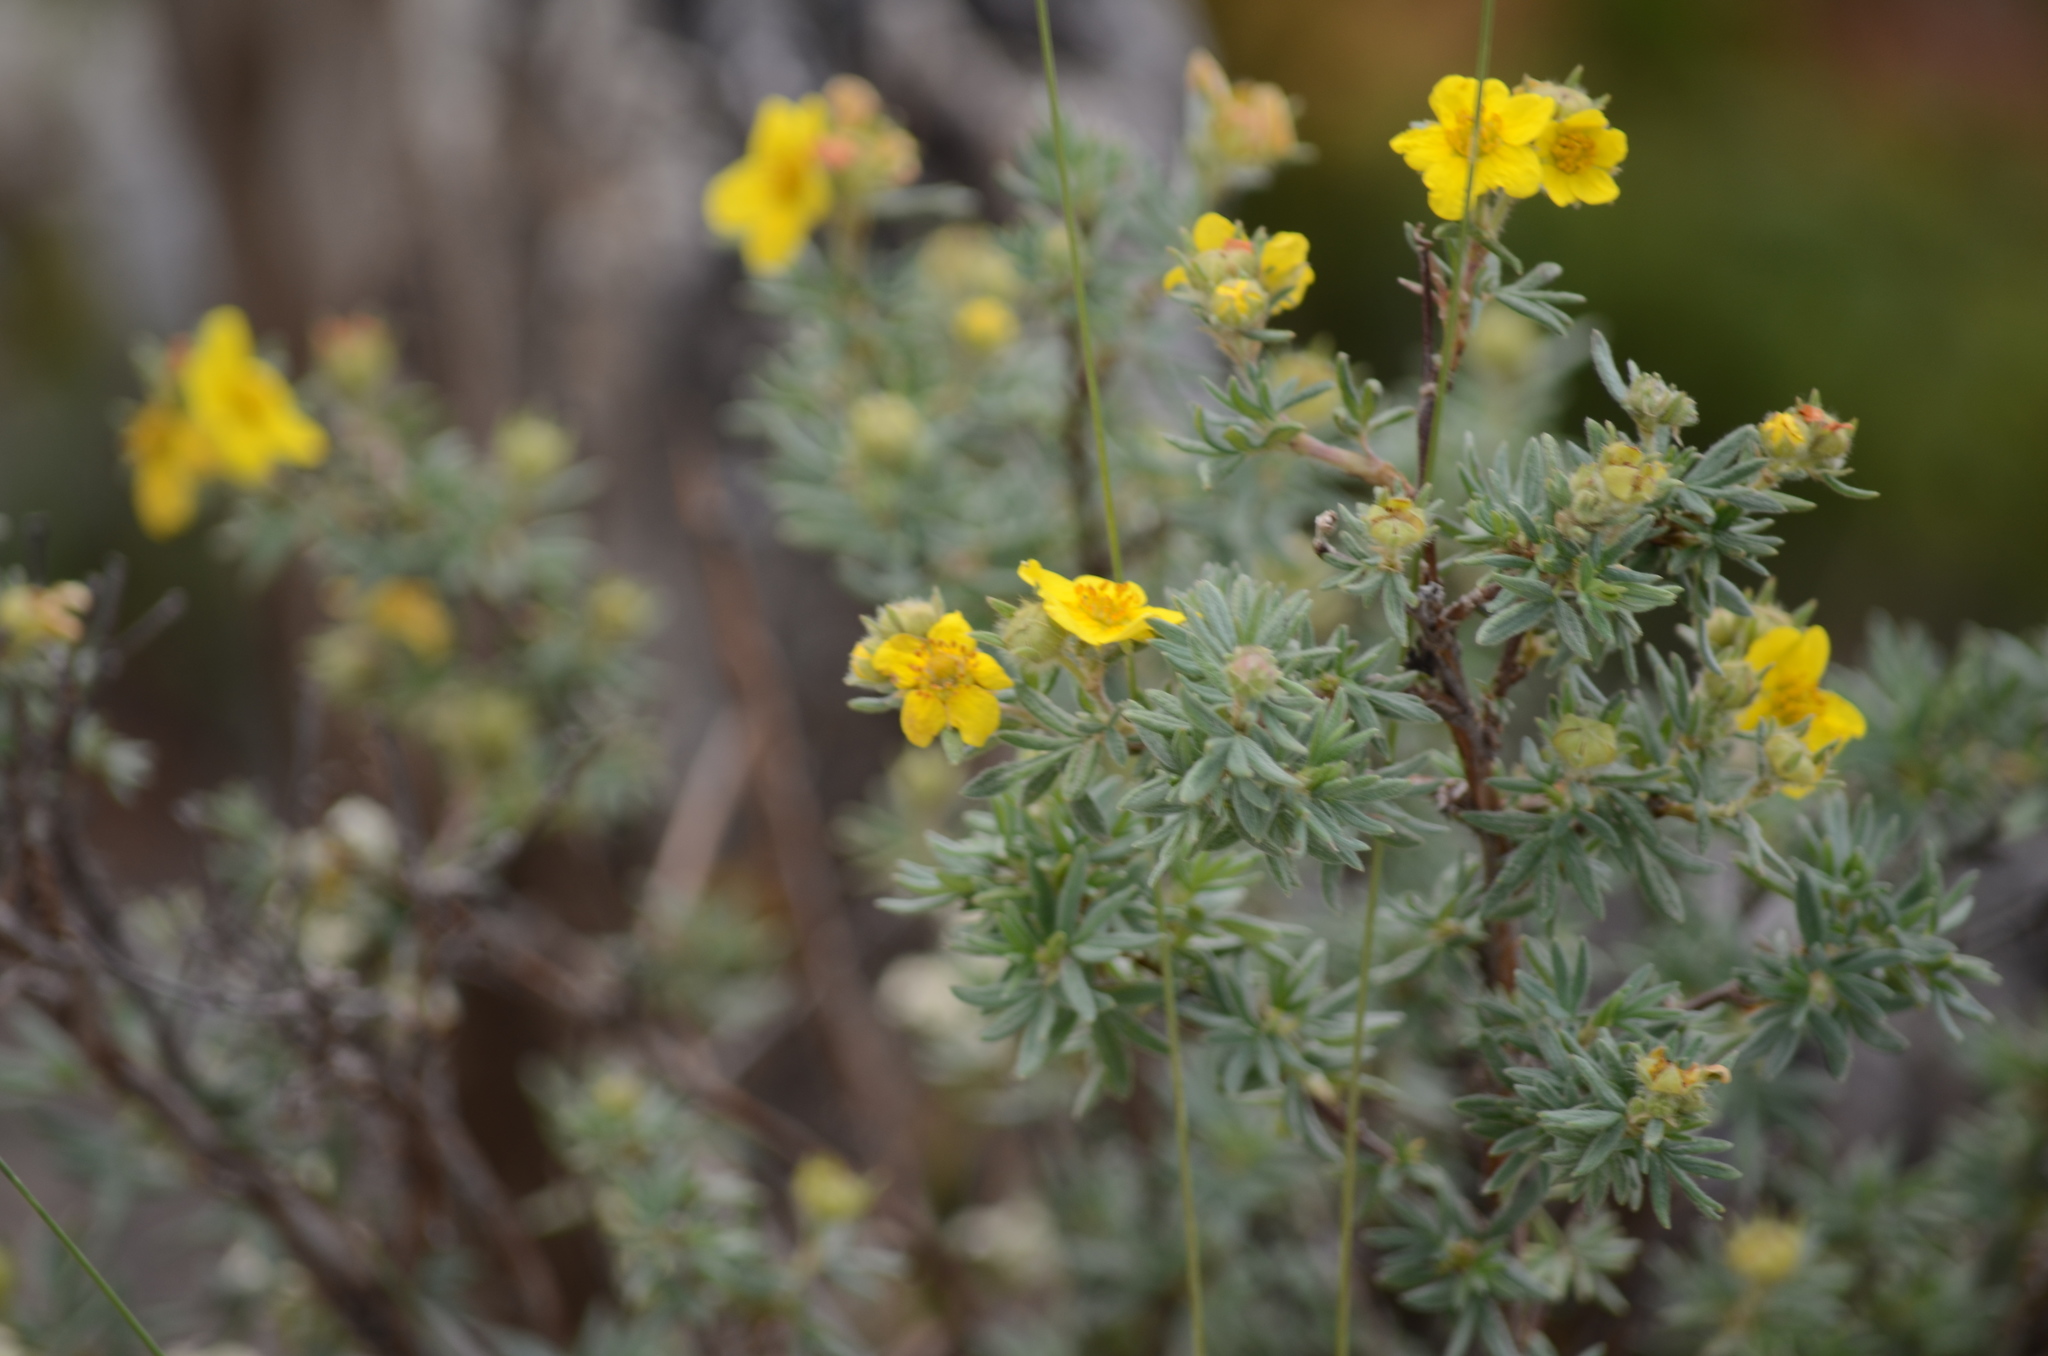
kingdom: Plantae
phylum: Tracheophyta
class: Magnoliopsida
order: Rosales
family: Rosaceae
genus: Dasiphora
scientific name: Dasiphora fruticosa
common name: Shrubby cinquefoil
